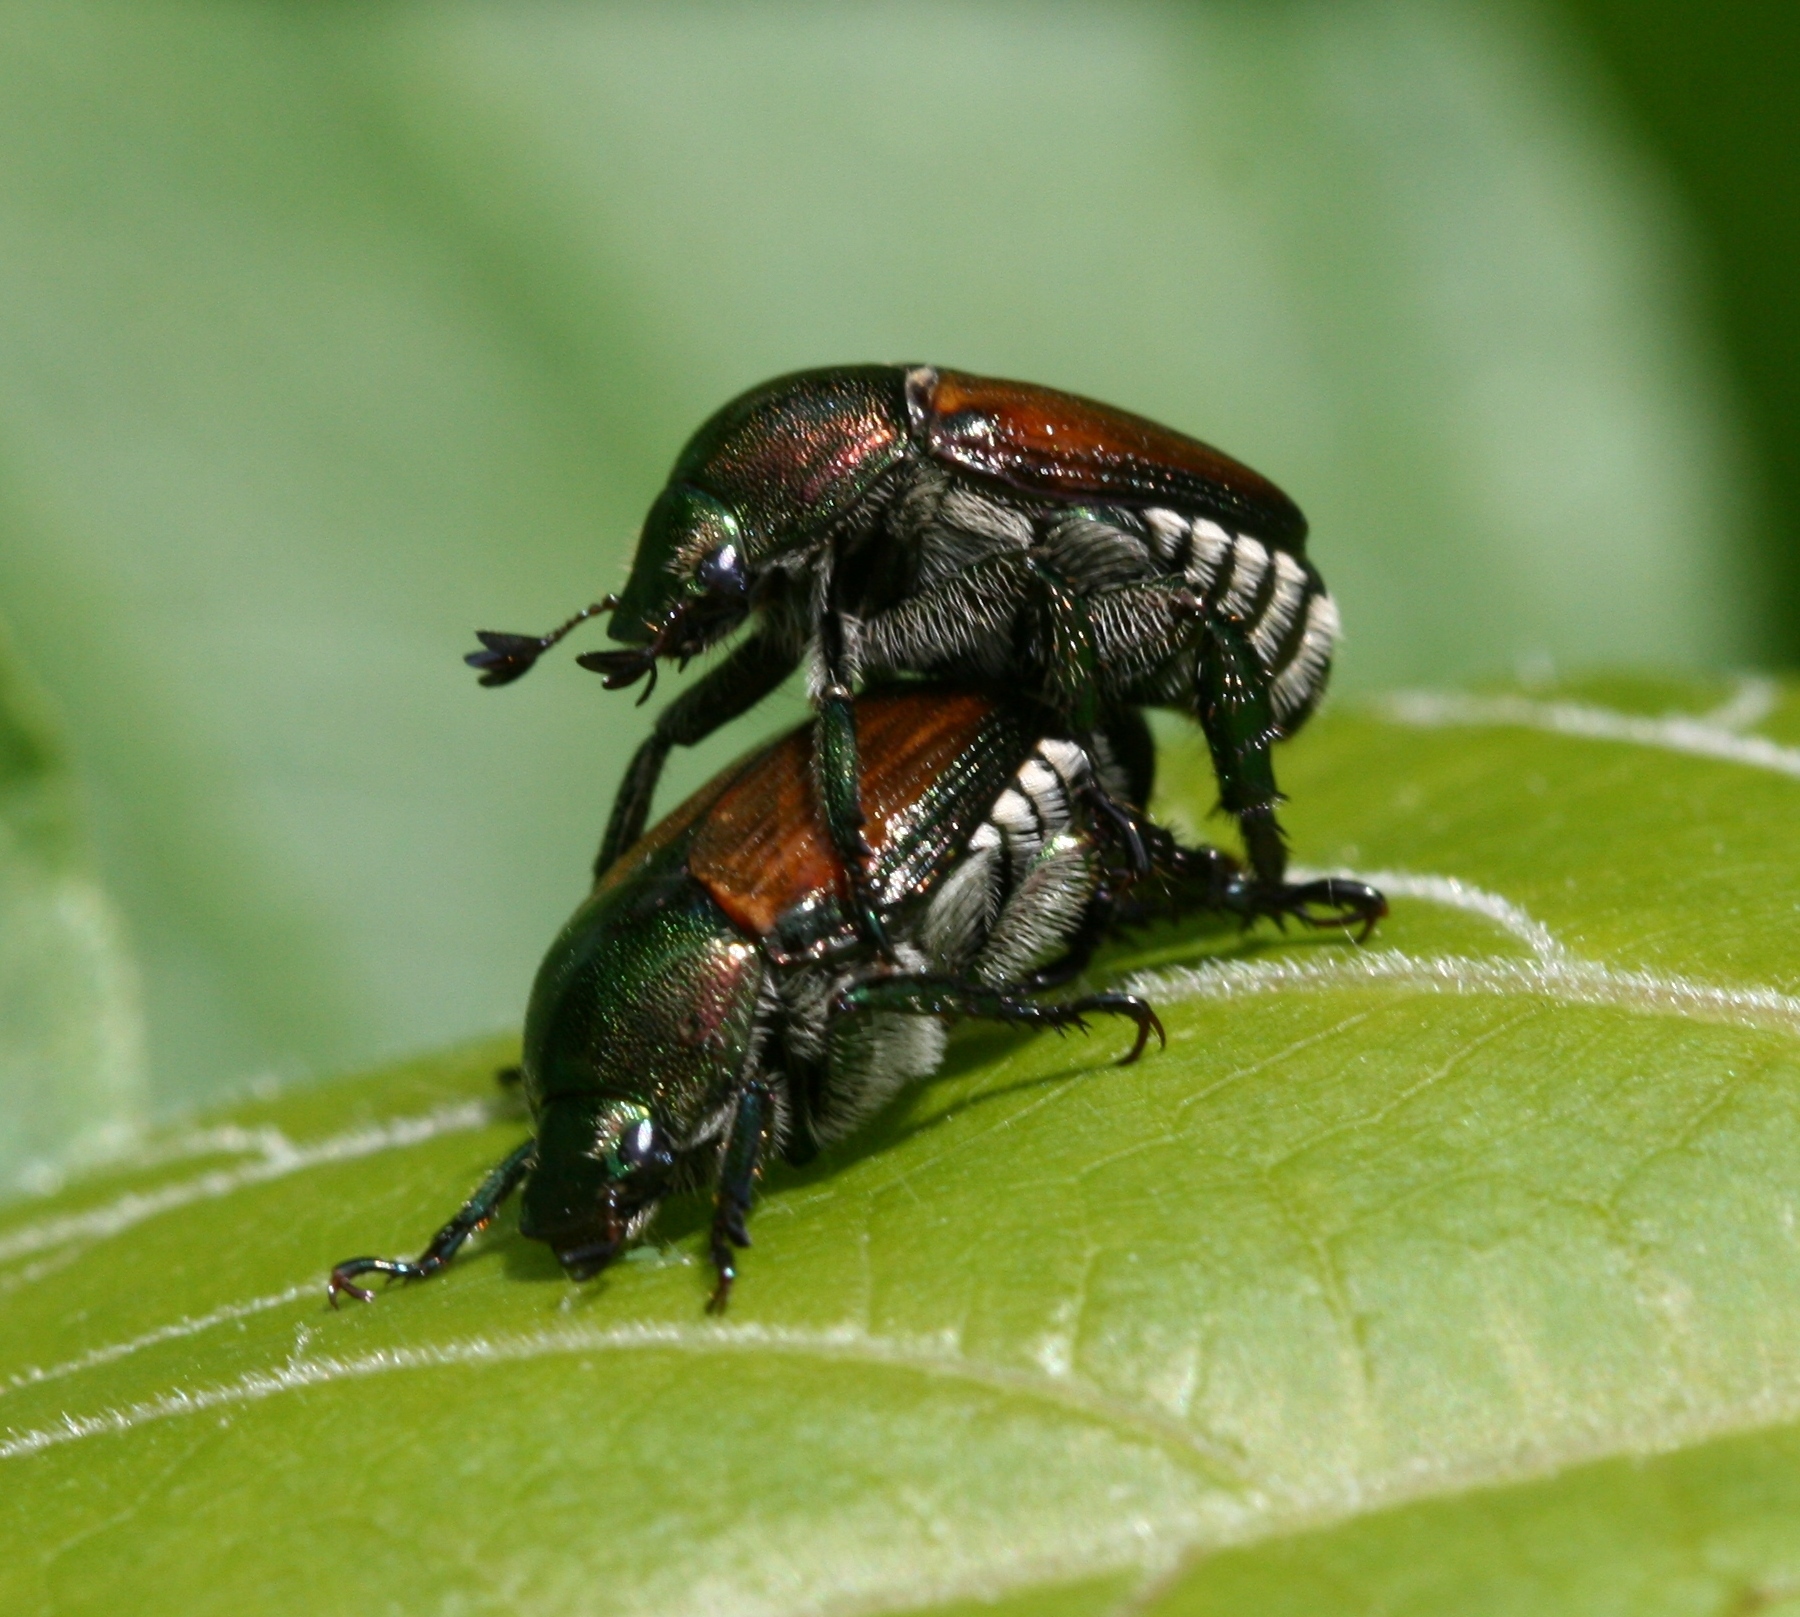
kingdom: Animalia
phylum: Arthropoda
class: Insecta
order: Coleoptera
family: Scarabaeidae
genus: Popillia
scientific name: Popillia japonica
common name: Japanese beetle
